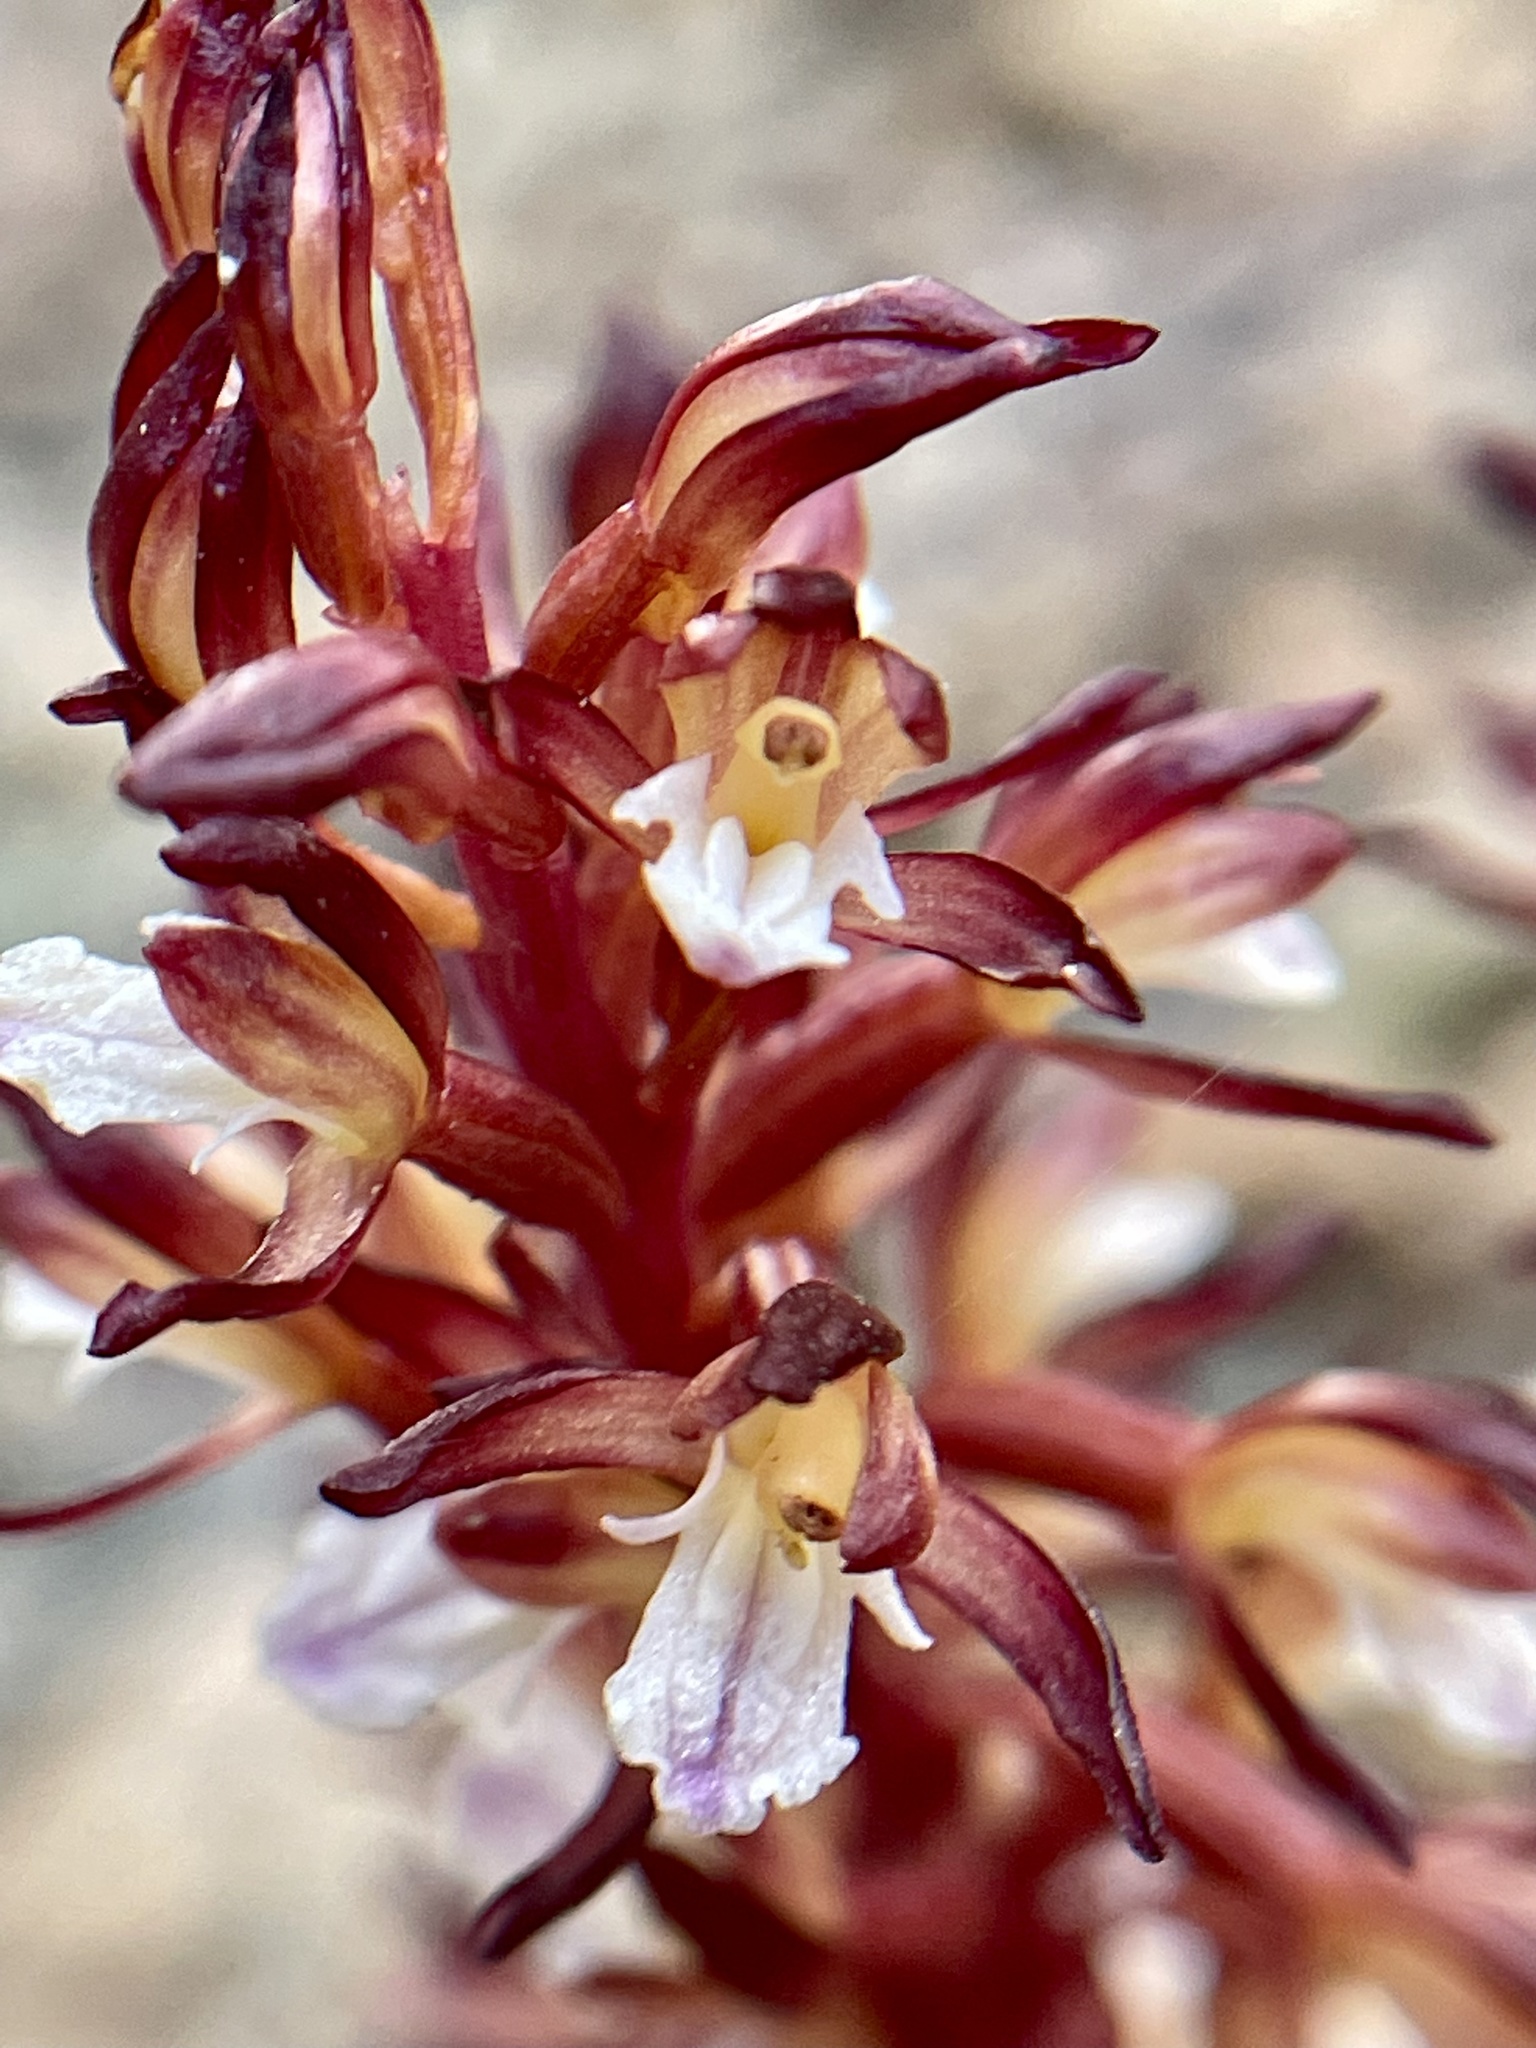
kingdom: Plantae
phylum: Tracheophyta
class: Liliopsida
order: Asparagales
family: Orchidaceae
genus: Corallorhiza
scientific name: Corallorhiza maculata
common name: Spotted coralroot
